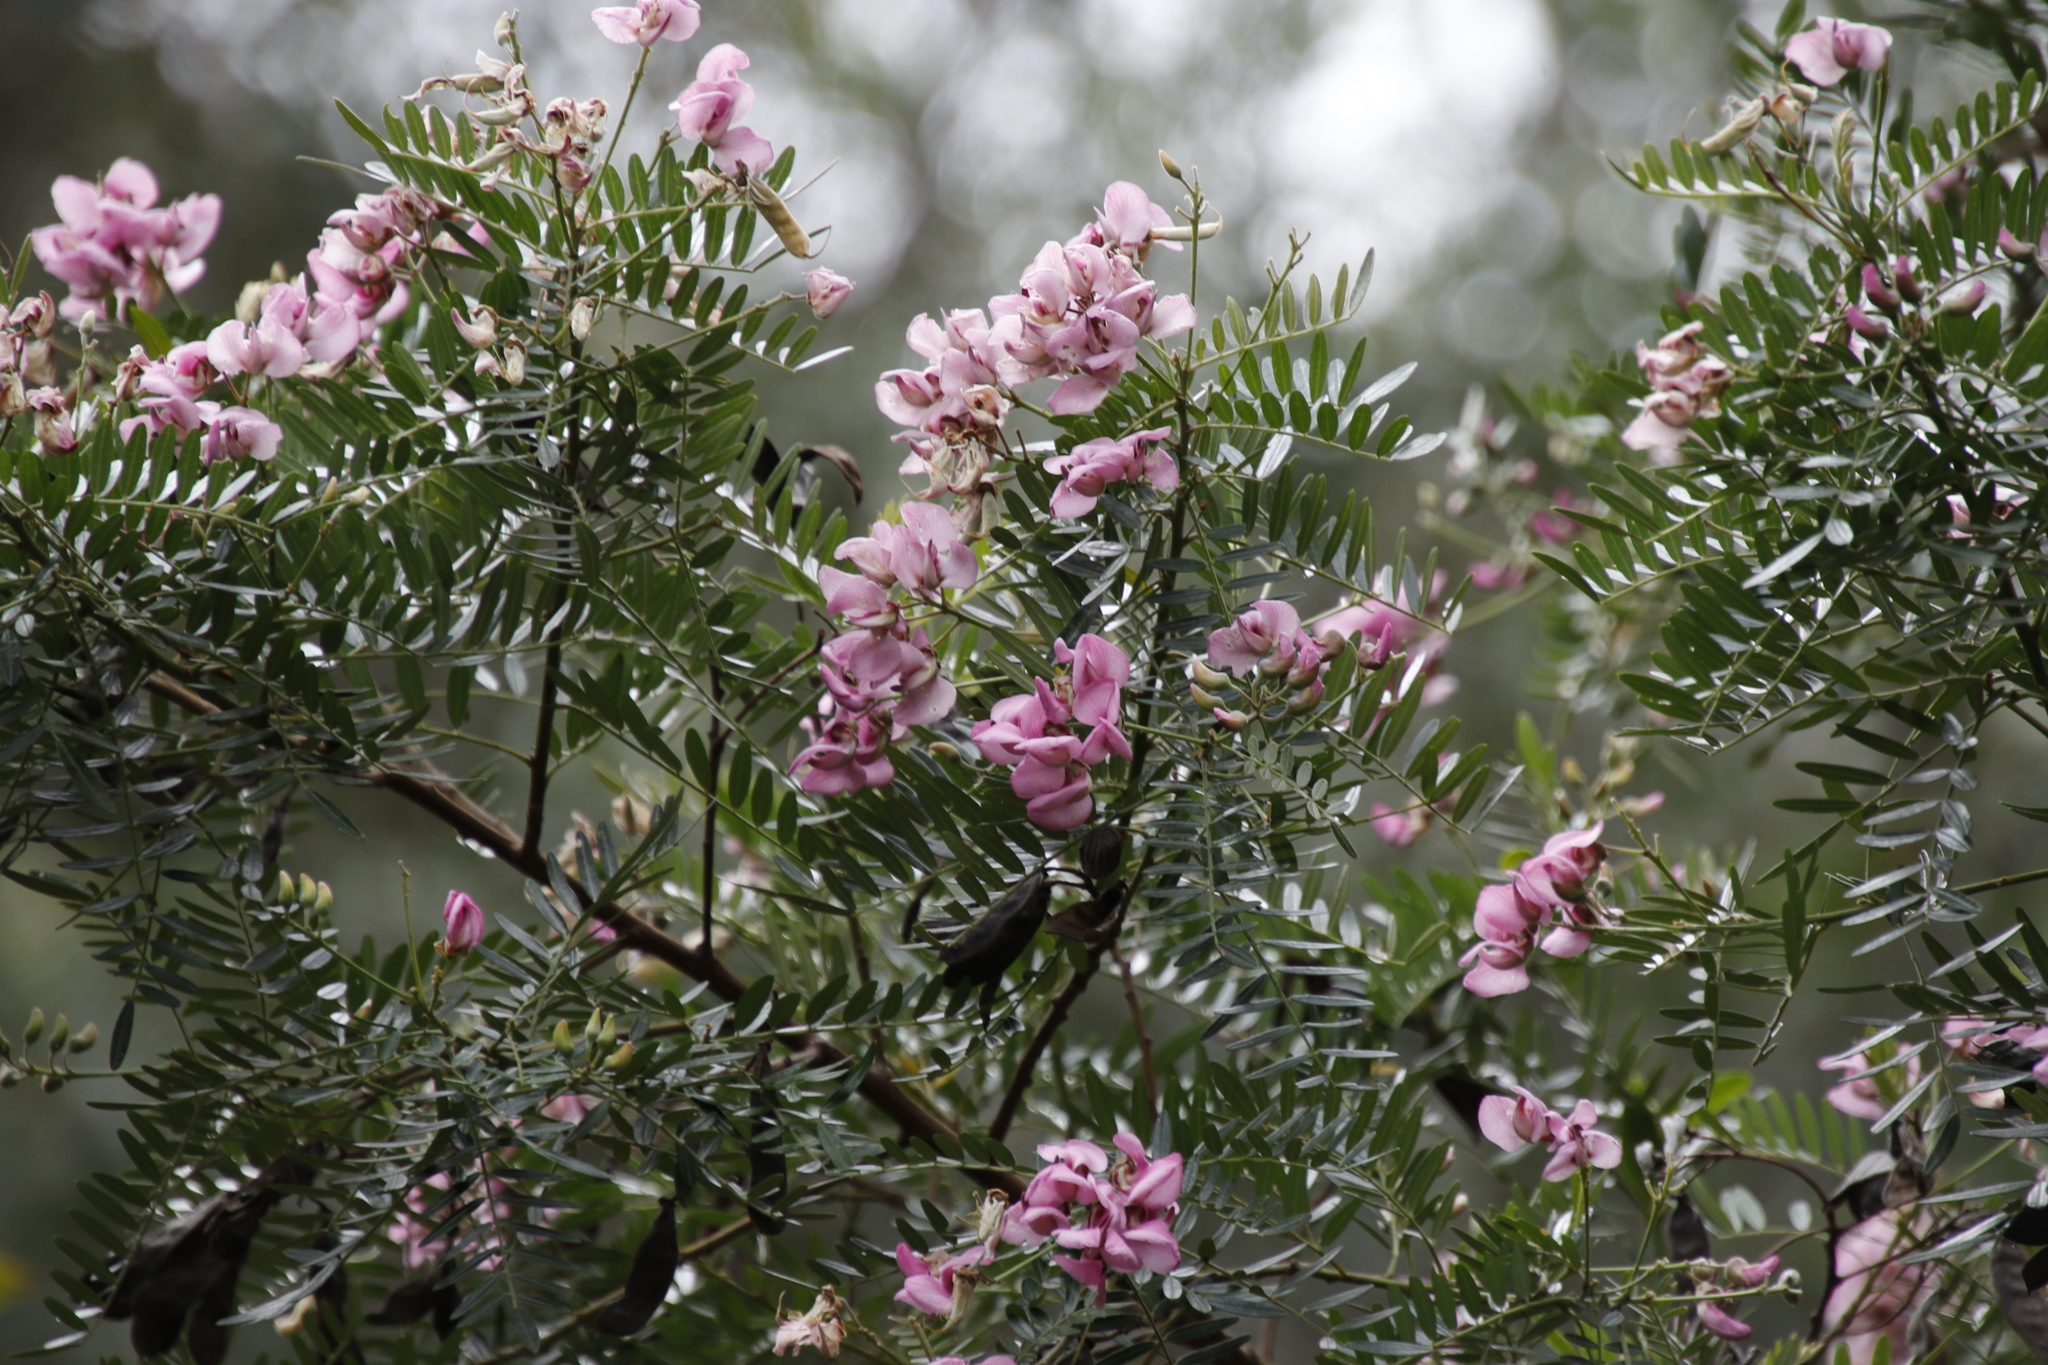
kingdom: Plantae
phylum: Tracheophyta
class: Magnoliopsida
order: Fabales
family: Fabaceae
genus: Virgilia
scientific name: Virgilia divaricata
